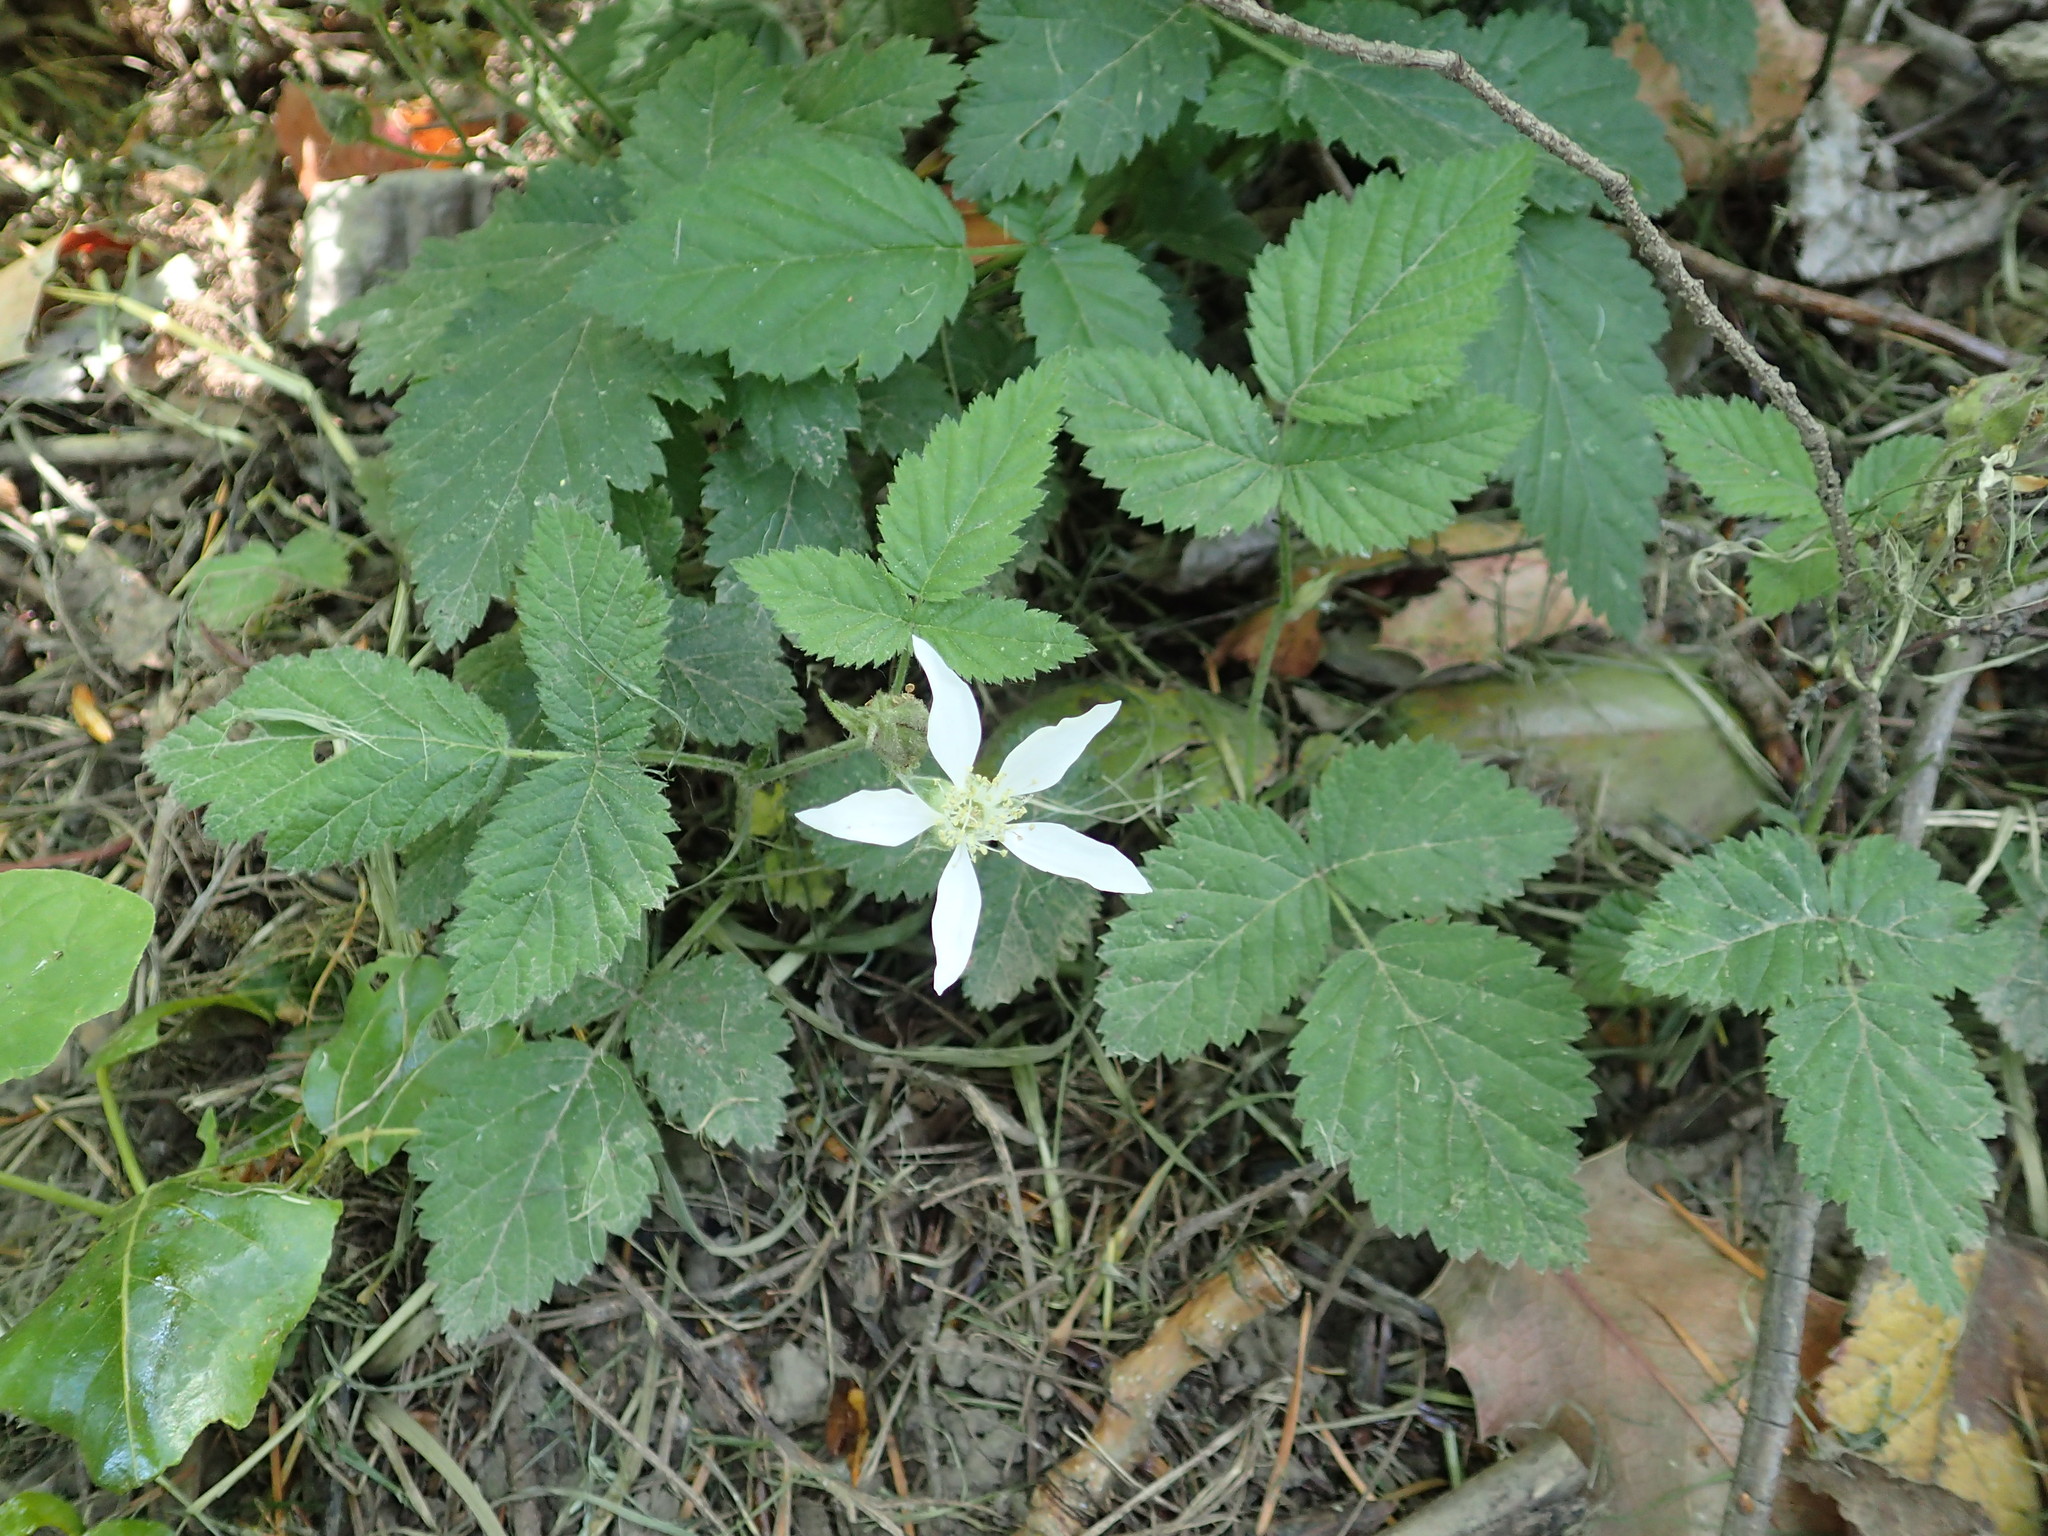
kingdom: Plantae
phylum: Tracheophyta
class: Magnoliopsida
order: Rosales
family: Rosaceae
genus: Rubus
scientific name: Rubus ursinus
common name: Pacific blackberry
